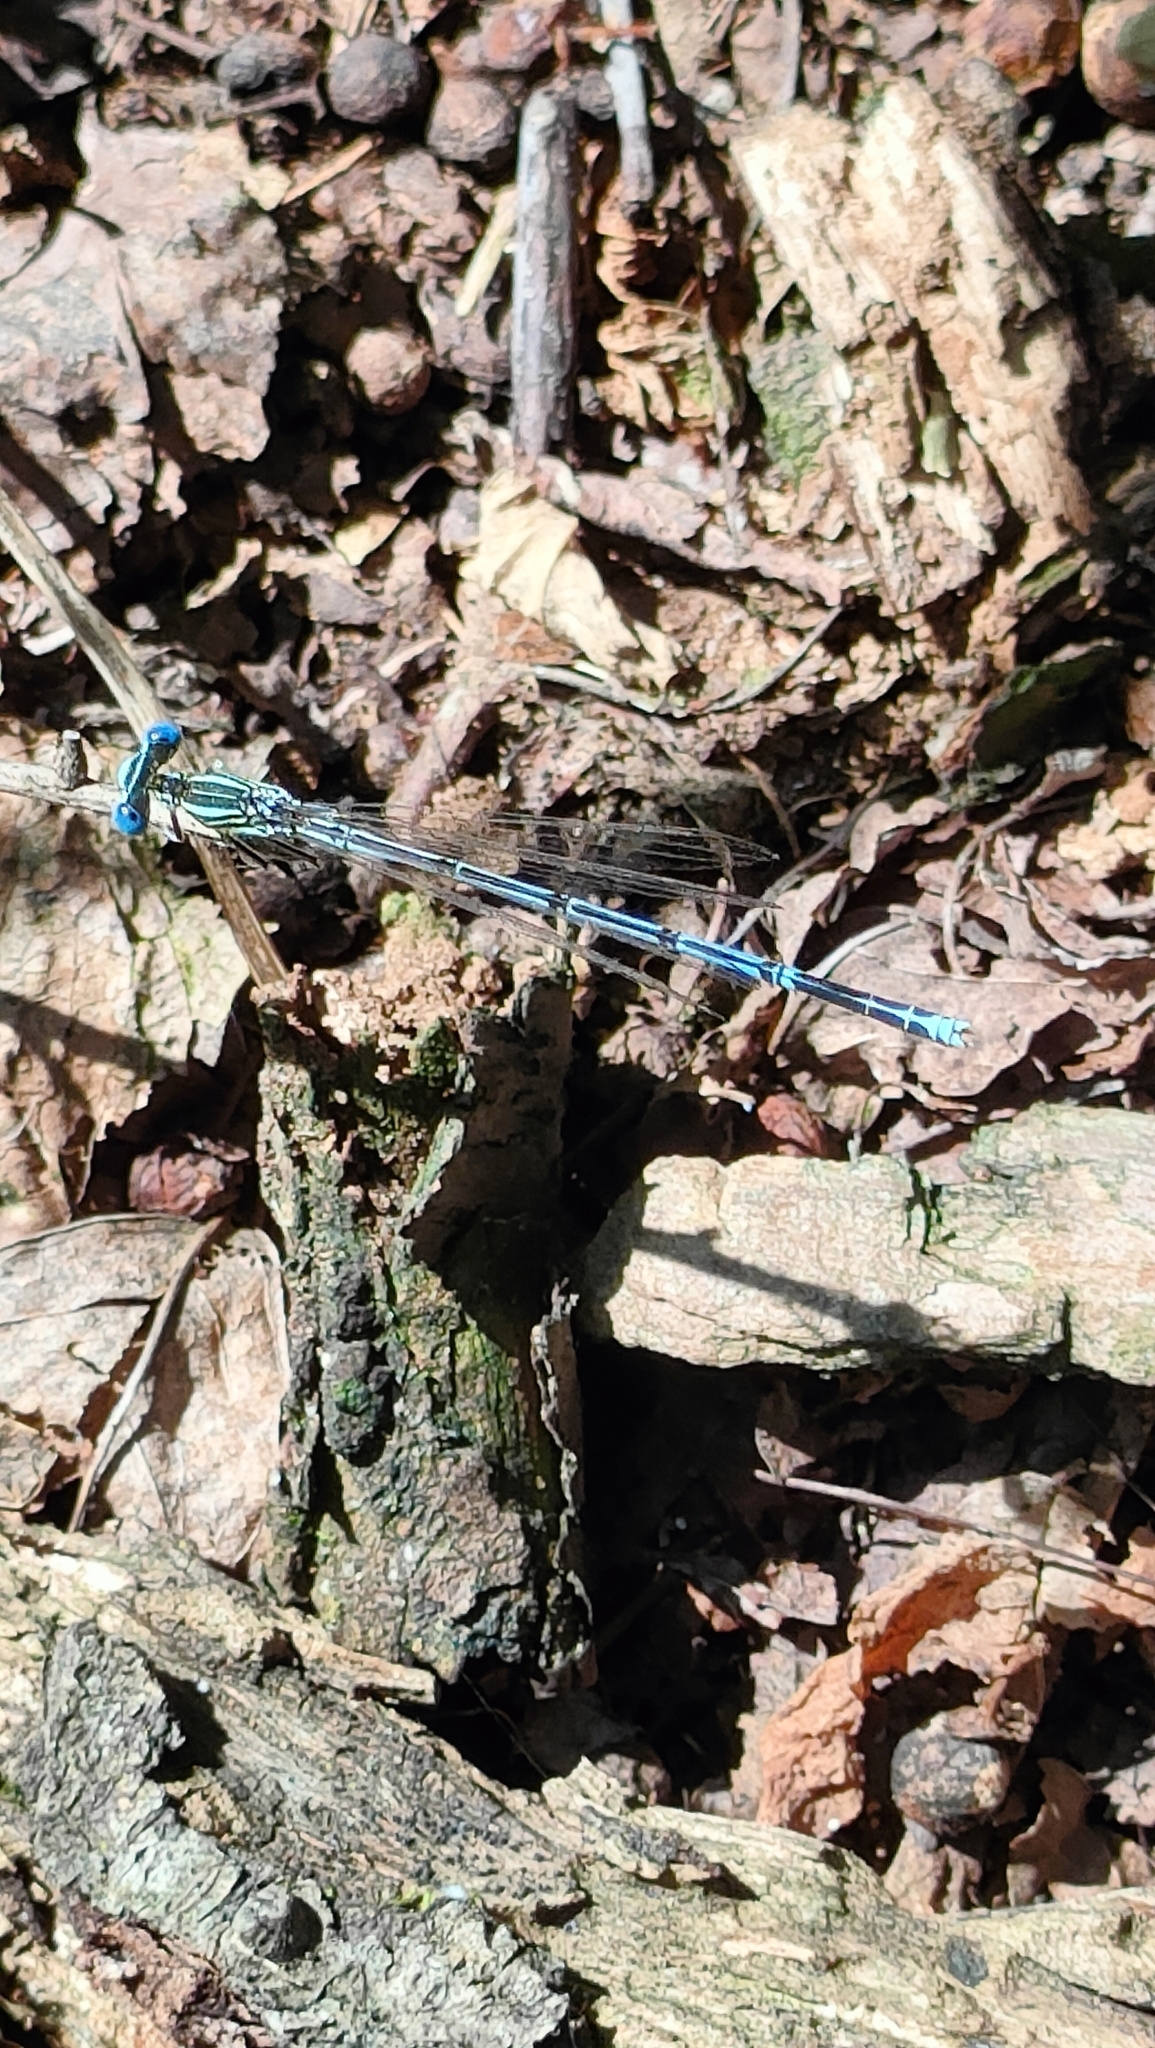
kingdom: Animalia
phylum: Arthropoda
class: Insecta
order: Odonata
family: Platycnemididae
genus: Platycnemis
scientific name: Platycnemis pennipes
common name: White-legged damselfly
